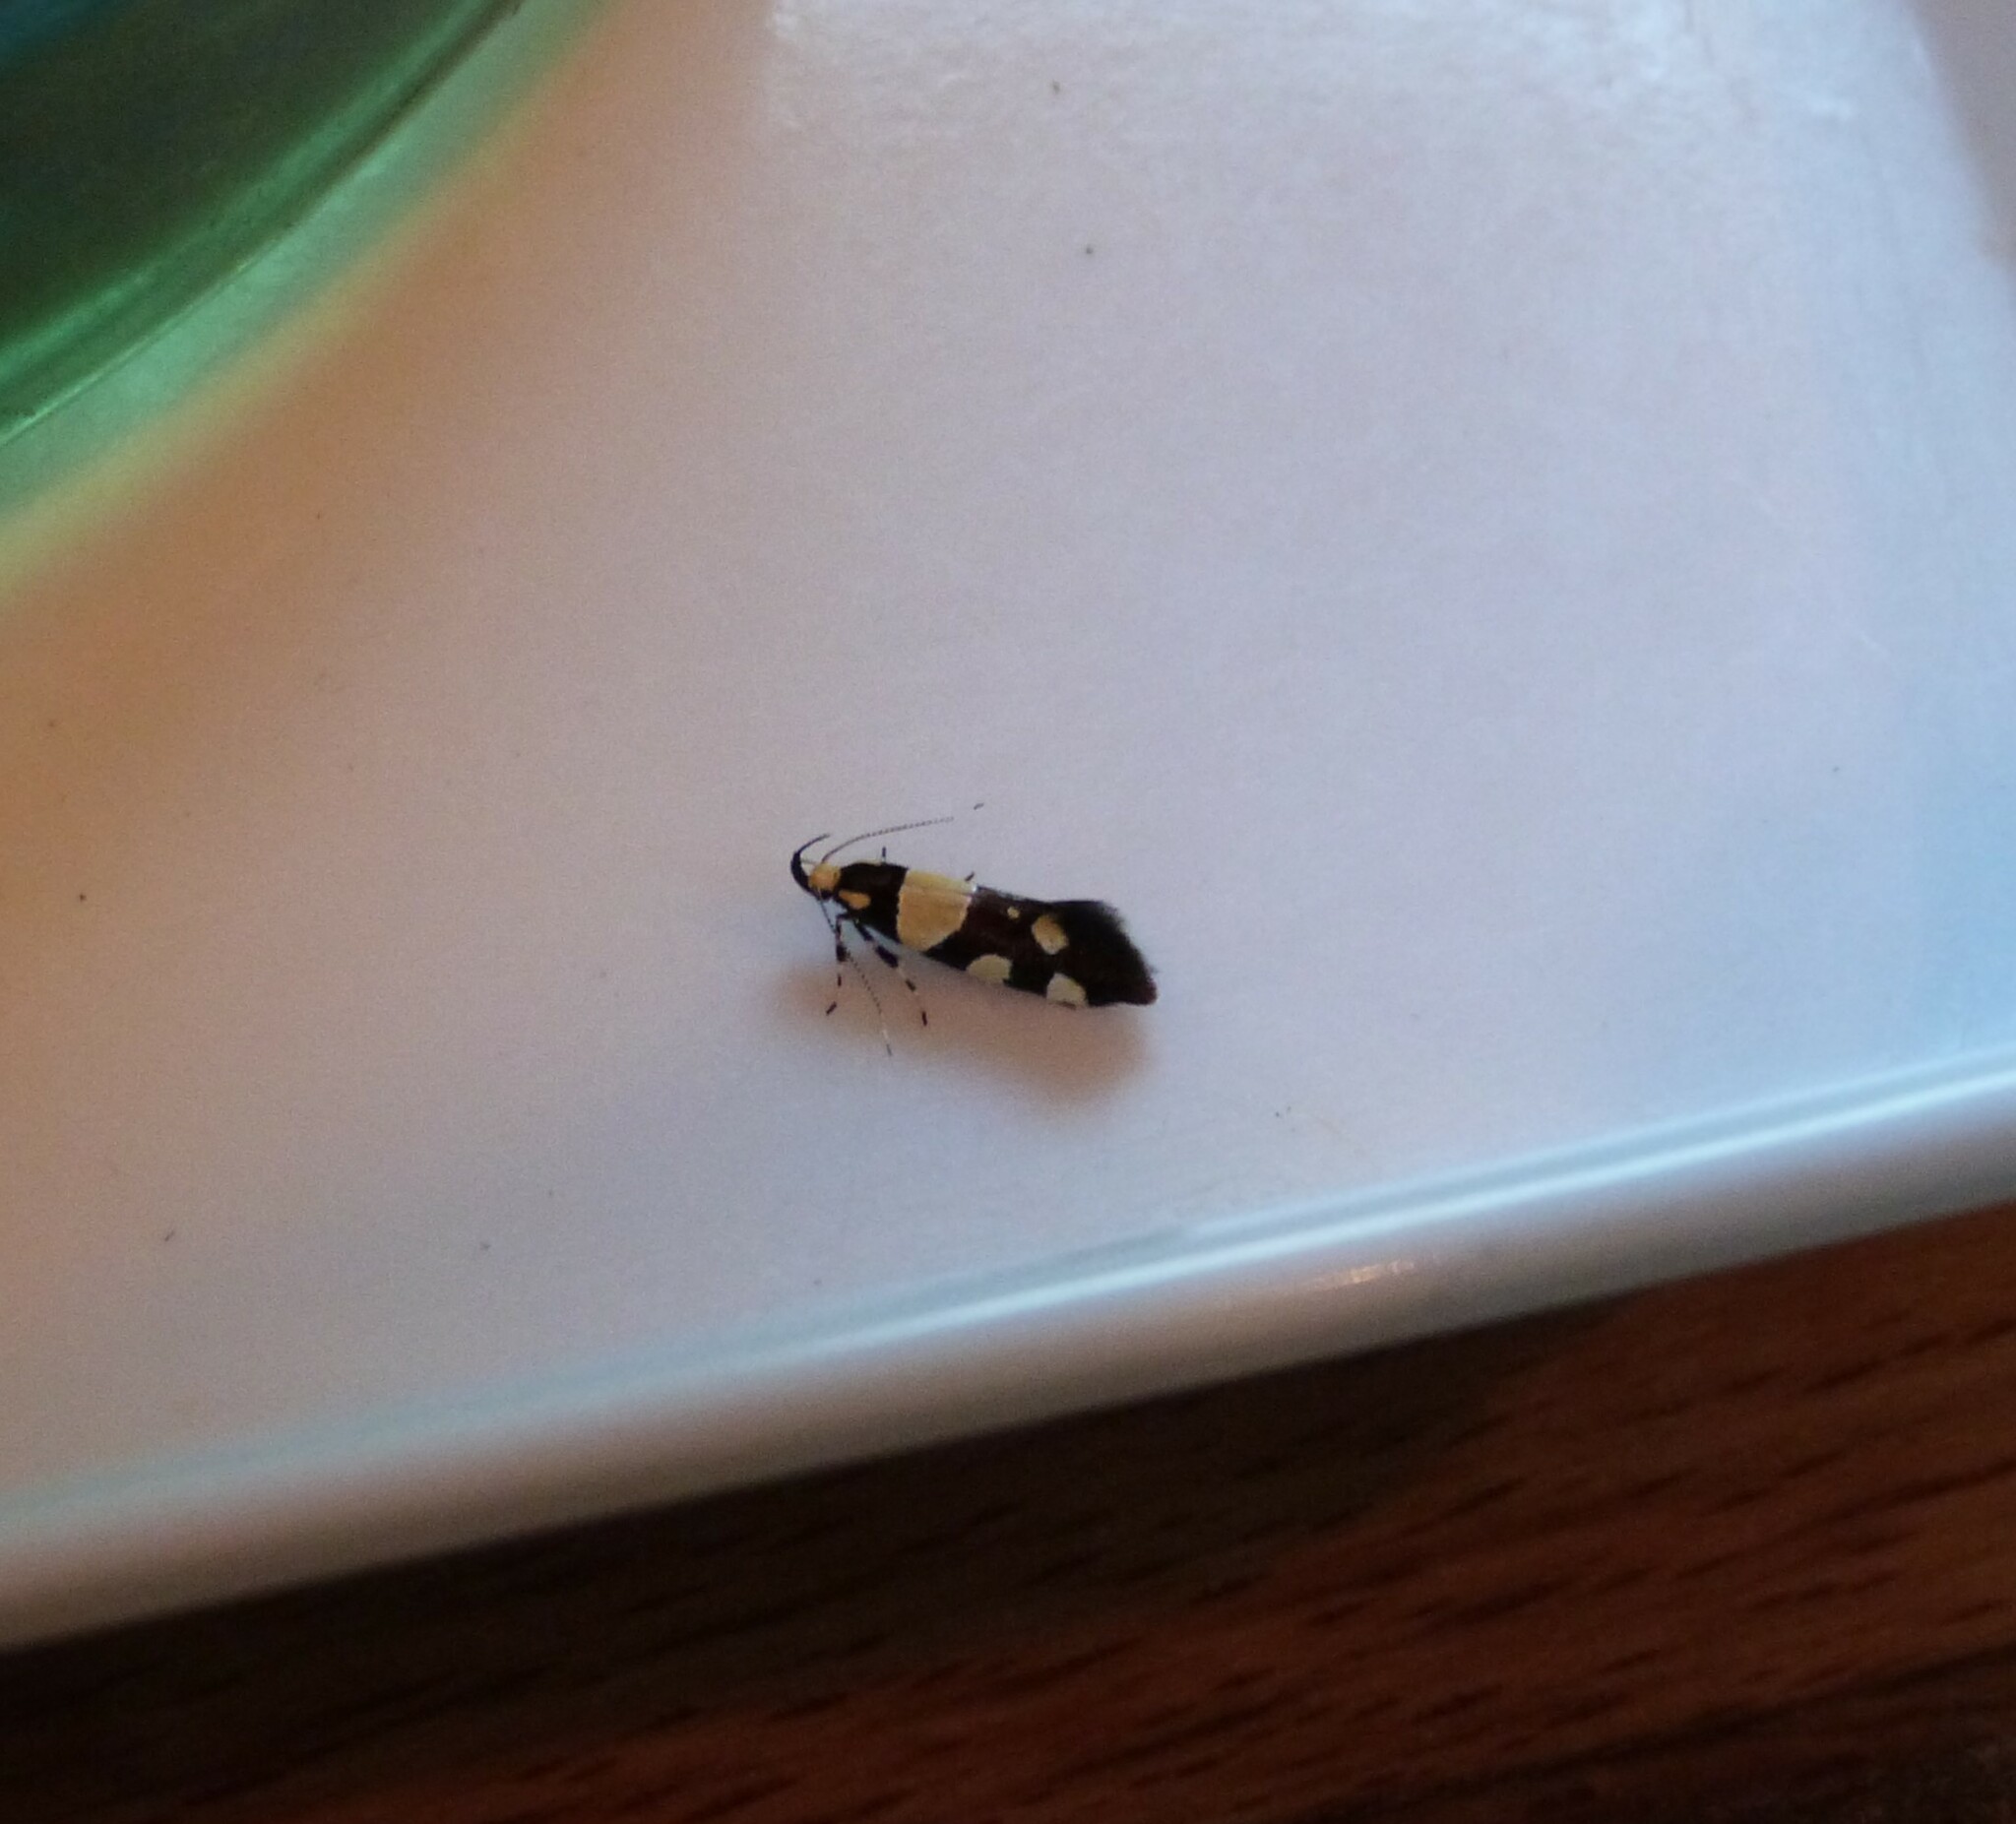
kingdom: Animalia
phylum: Arthropoda
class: Insecta
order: Lepidoptera
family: Oecophoridae
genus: Schiffermuelleria
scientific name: Schiffermuelleria amasiella
